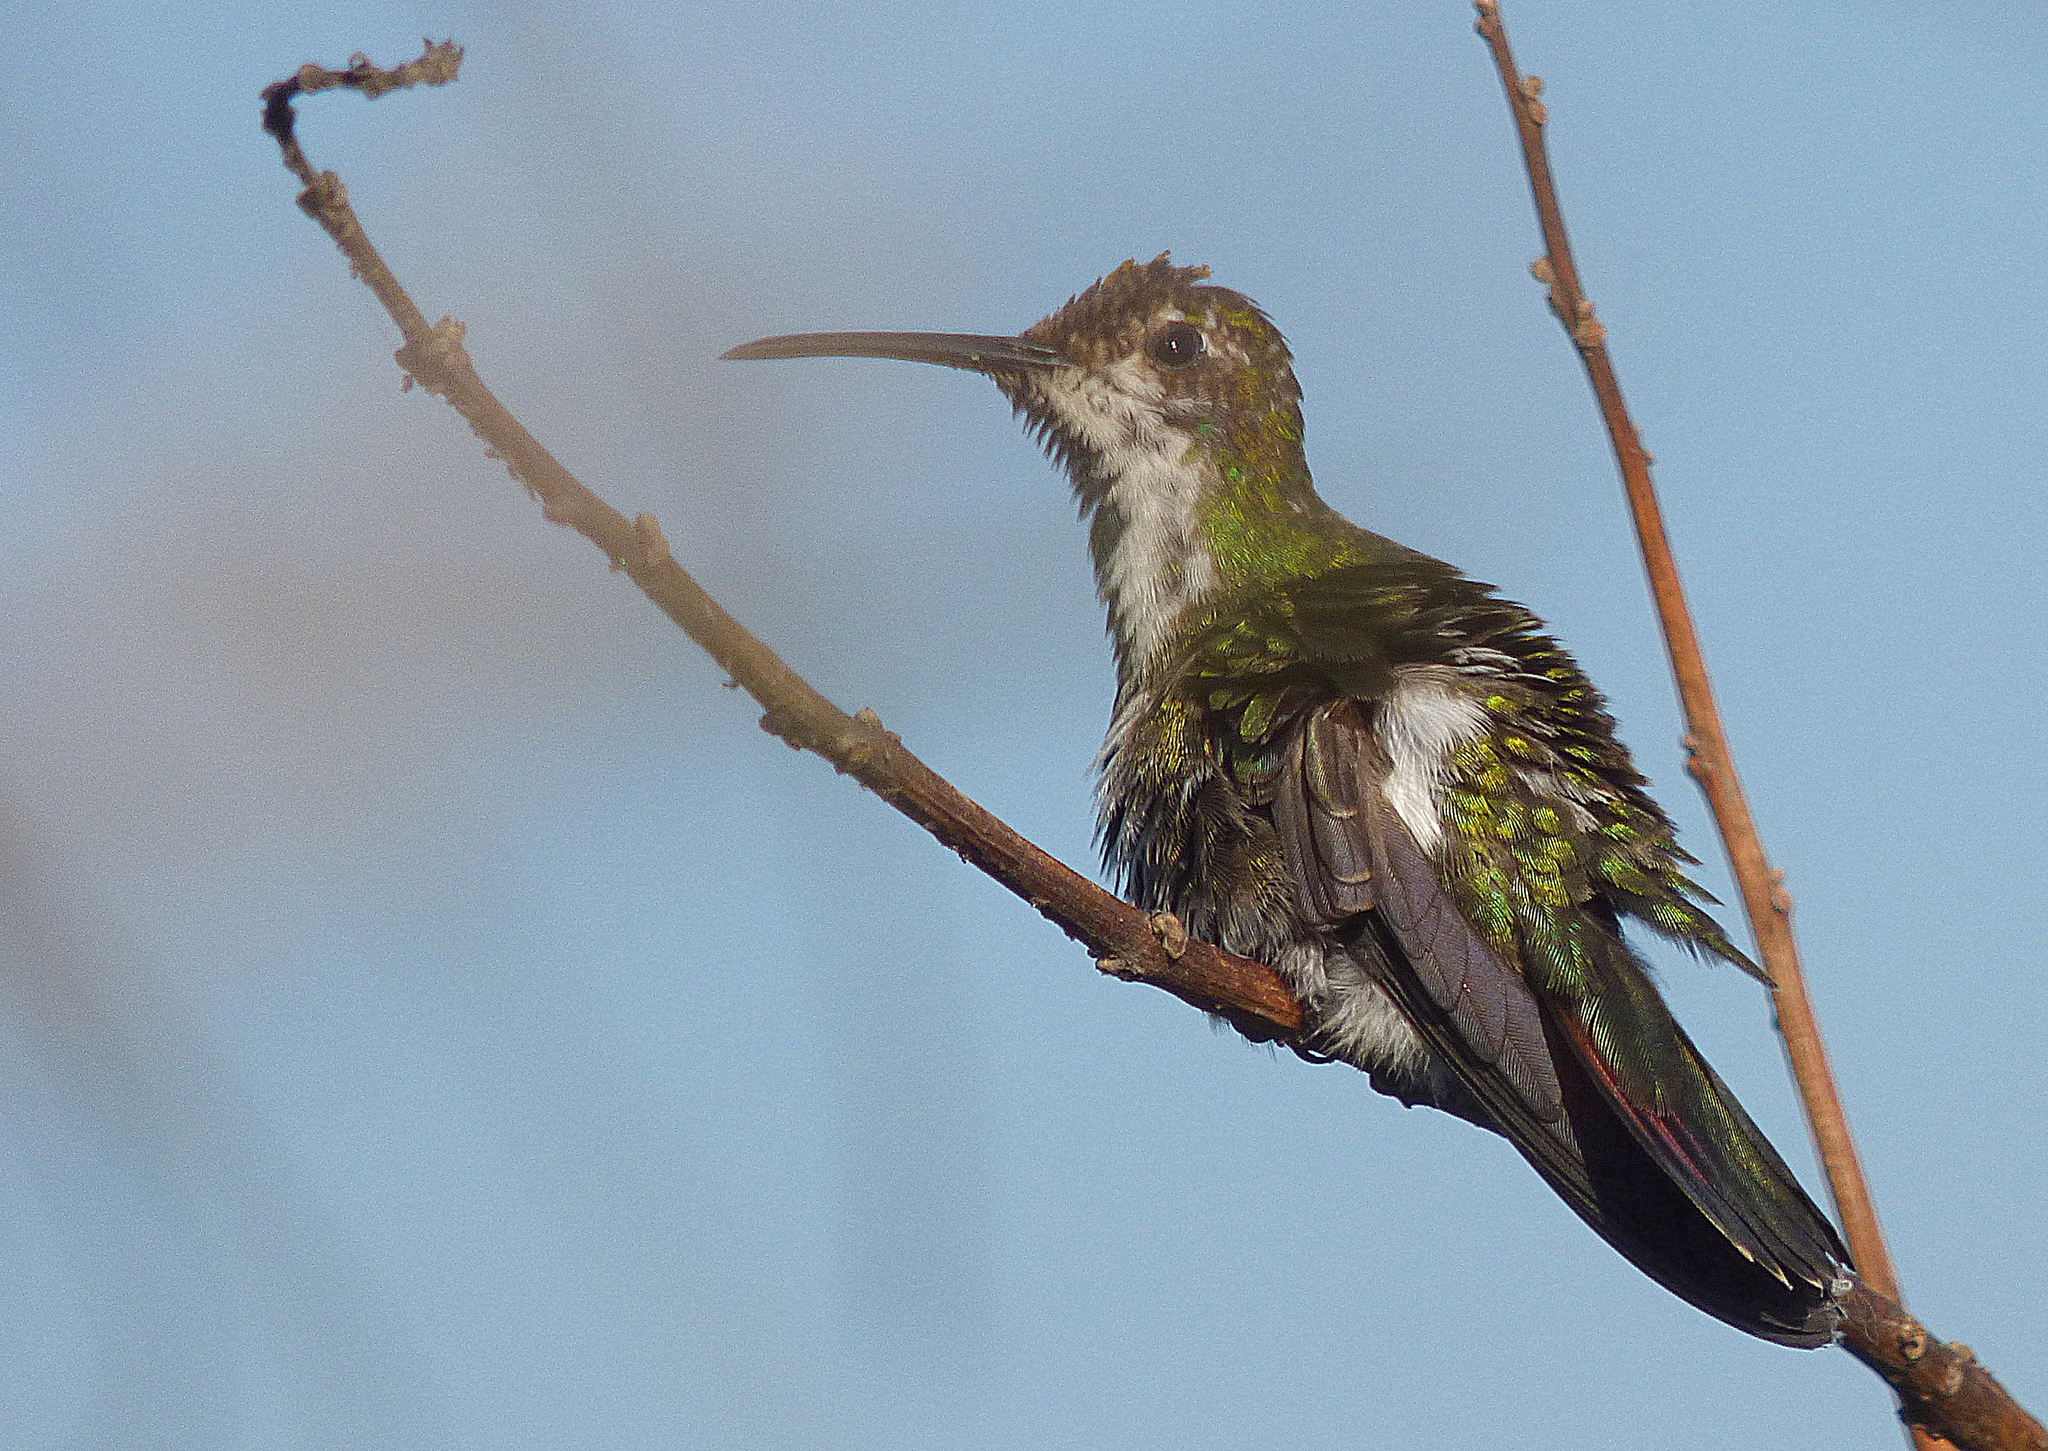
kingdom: Animalia
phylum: Chordata
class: Aves
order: Apodiformes
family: Trochilidae
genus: Anthracothorax
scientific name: Anthracothorax nigricollis
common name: Black-throated mango
